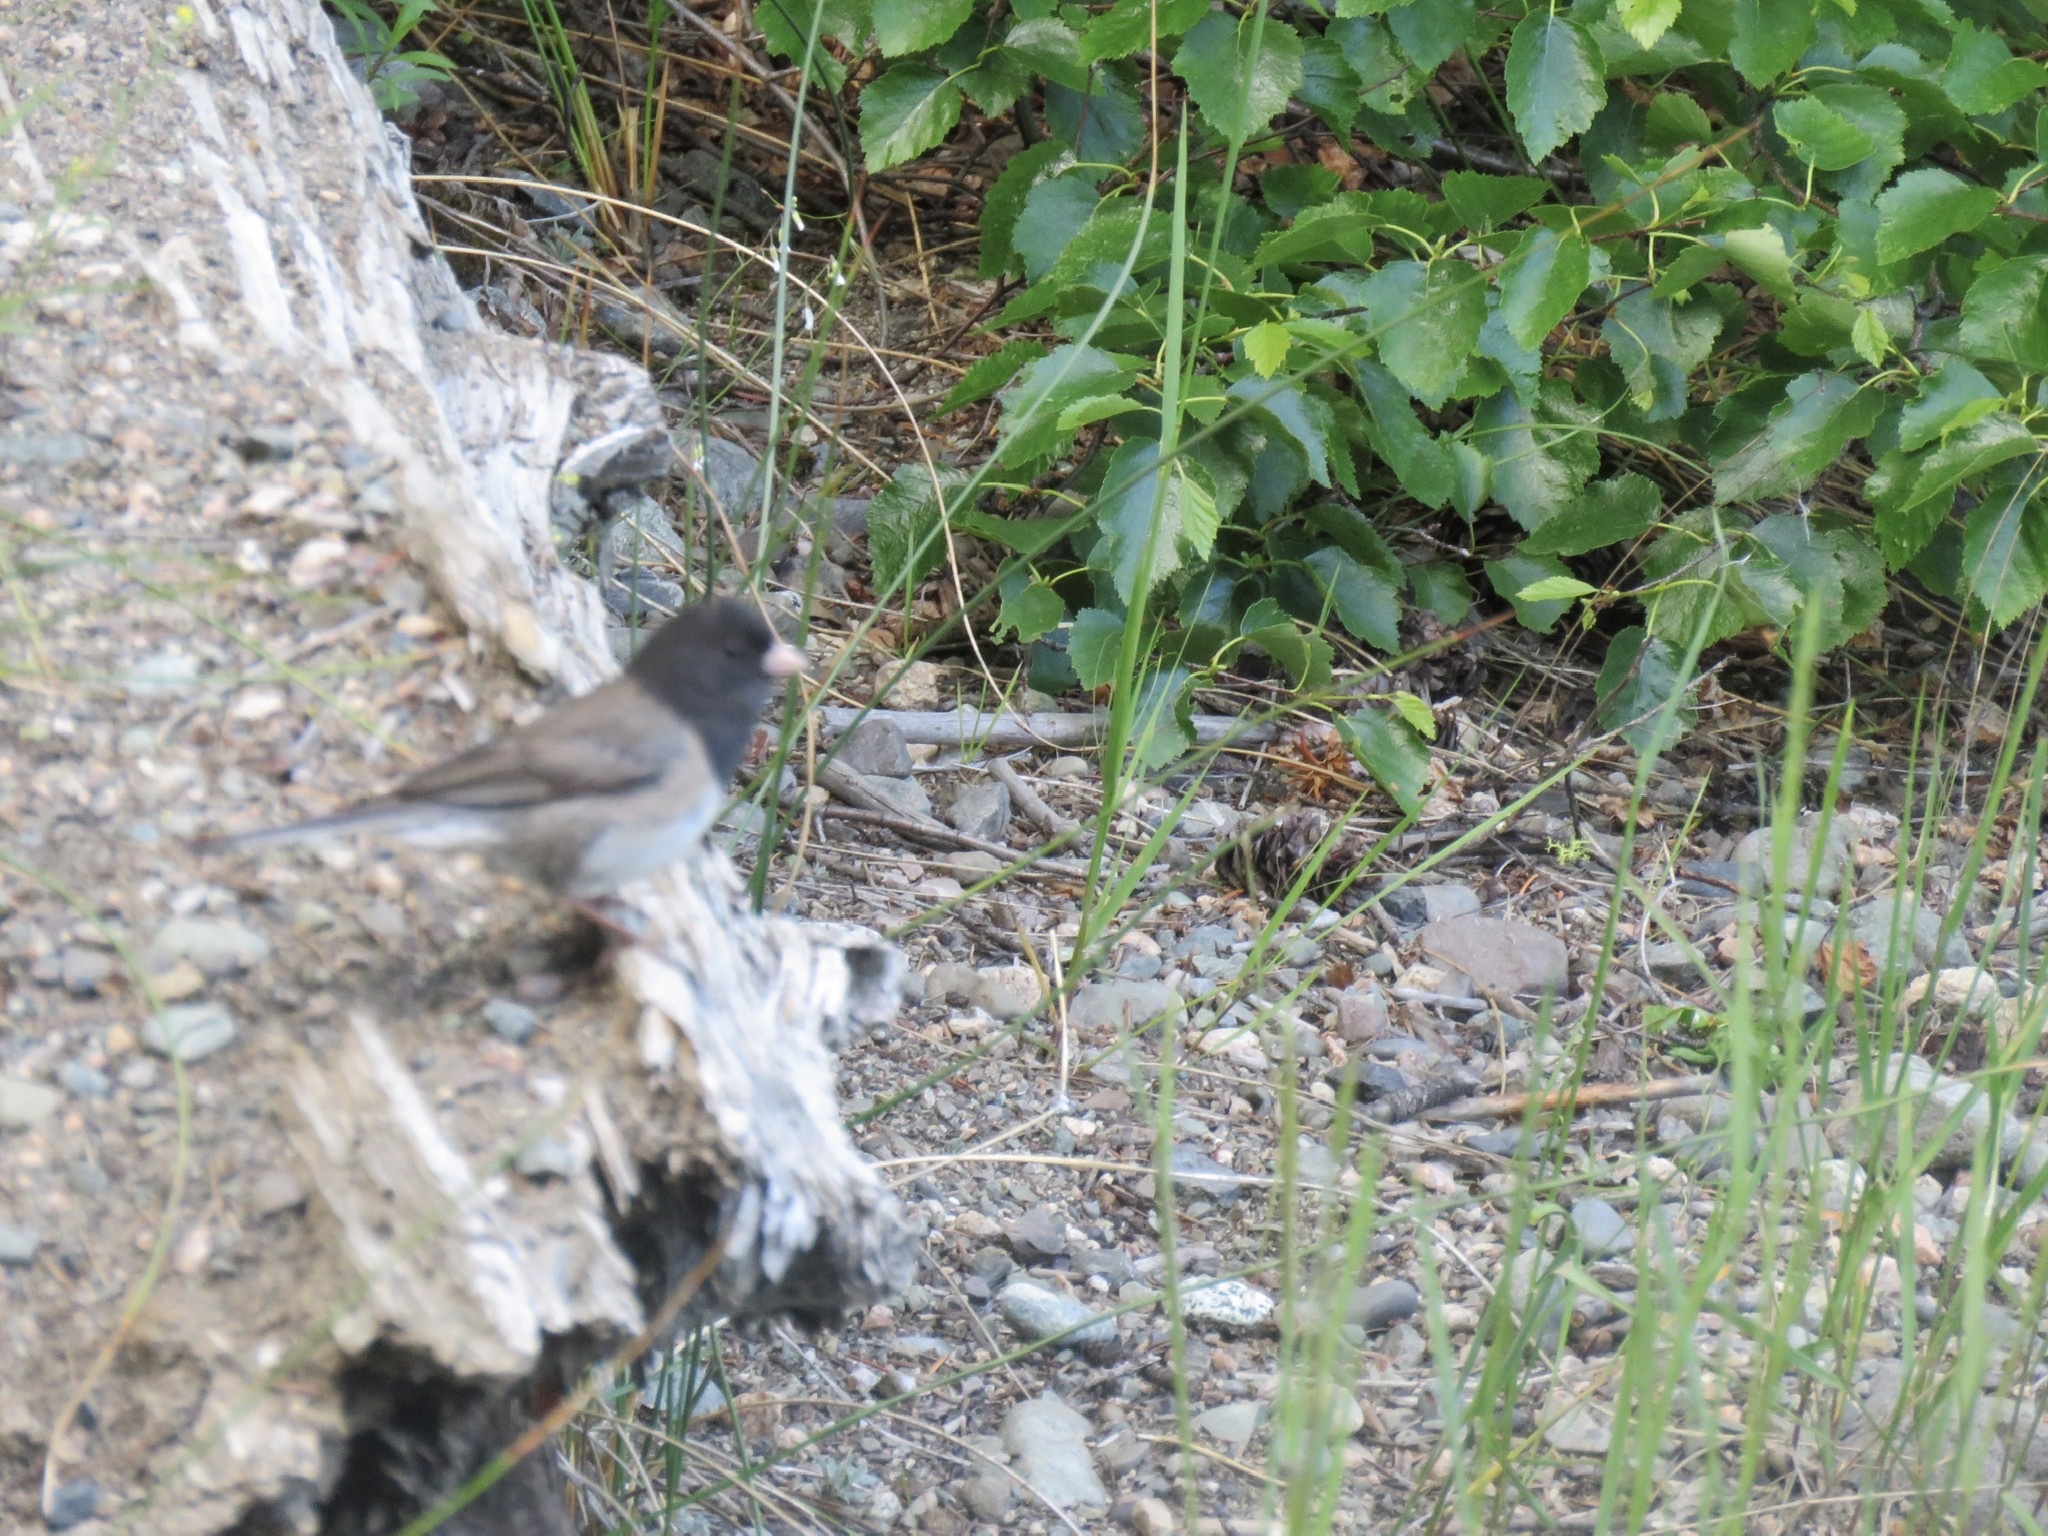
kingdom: Animalia
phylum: Chordata
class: Aves
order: Passeriformes
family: Passerellidae
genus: Junco
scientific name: Junco hyemalis
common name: Dark-eyed junco
